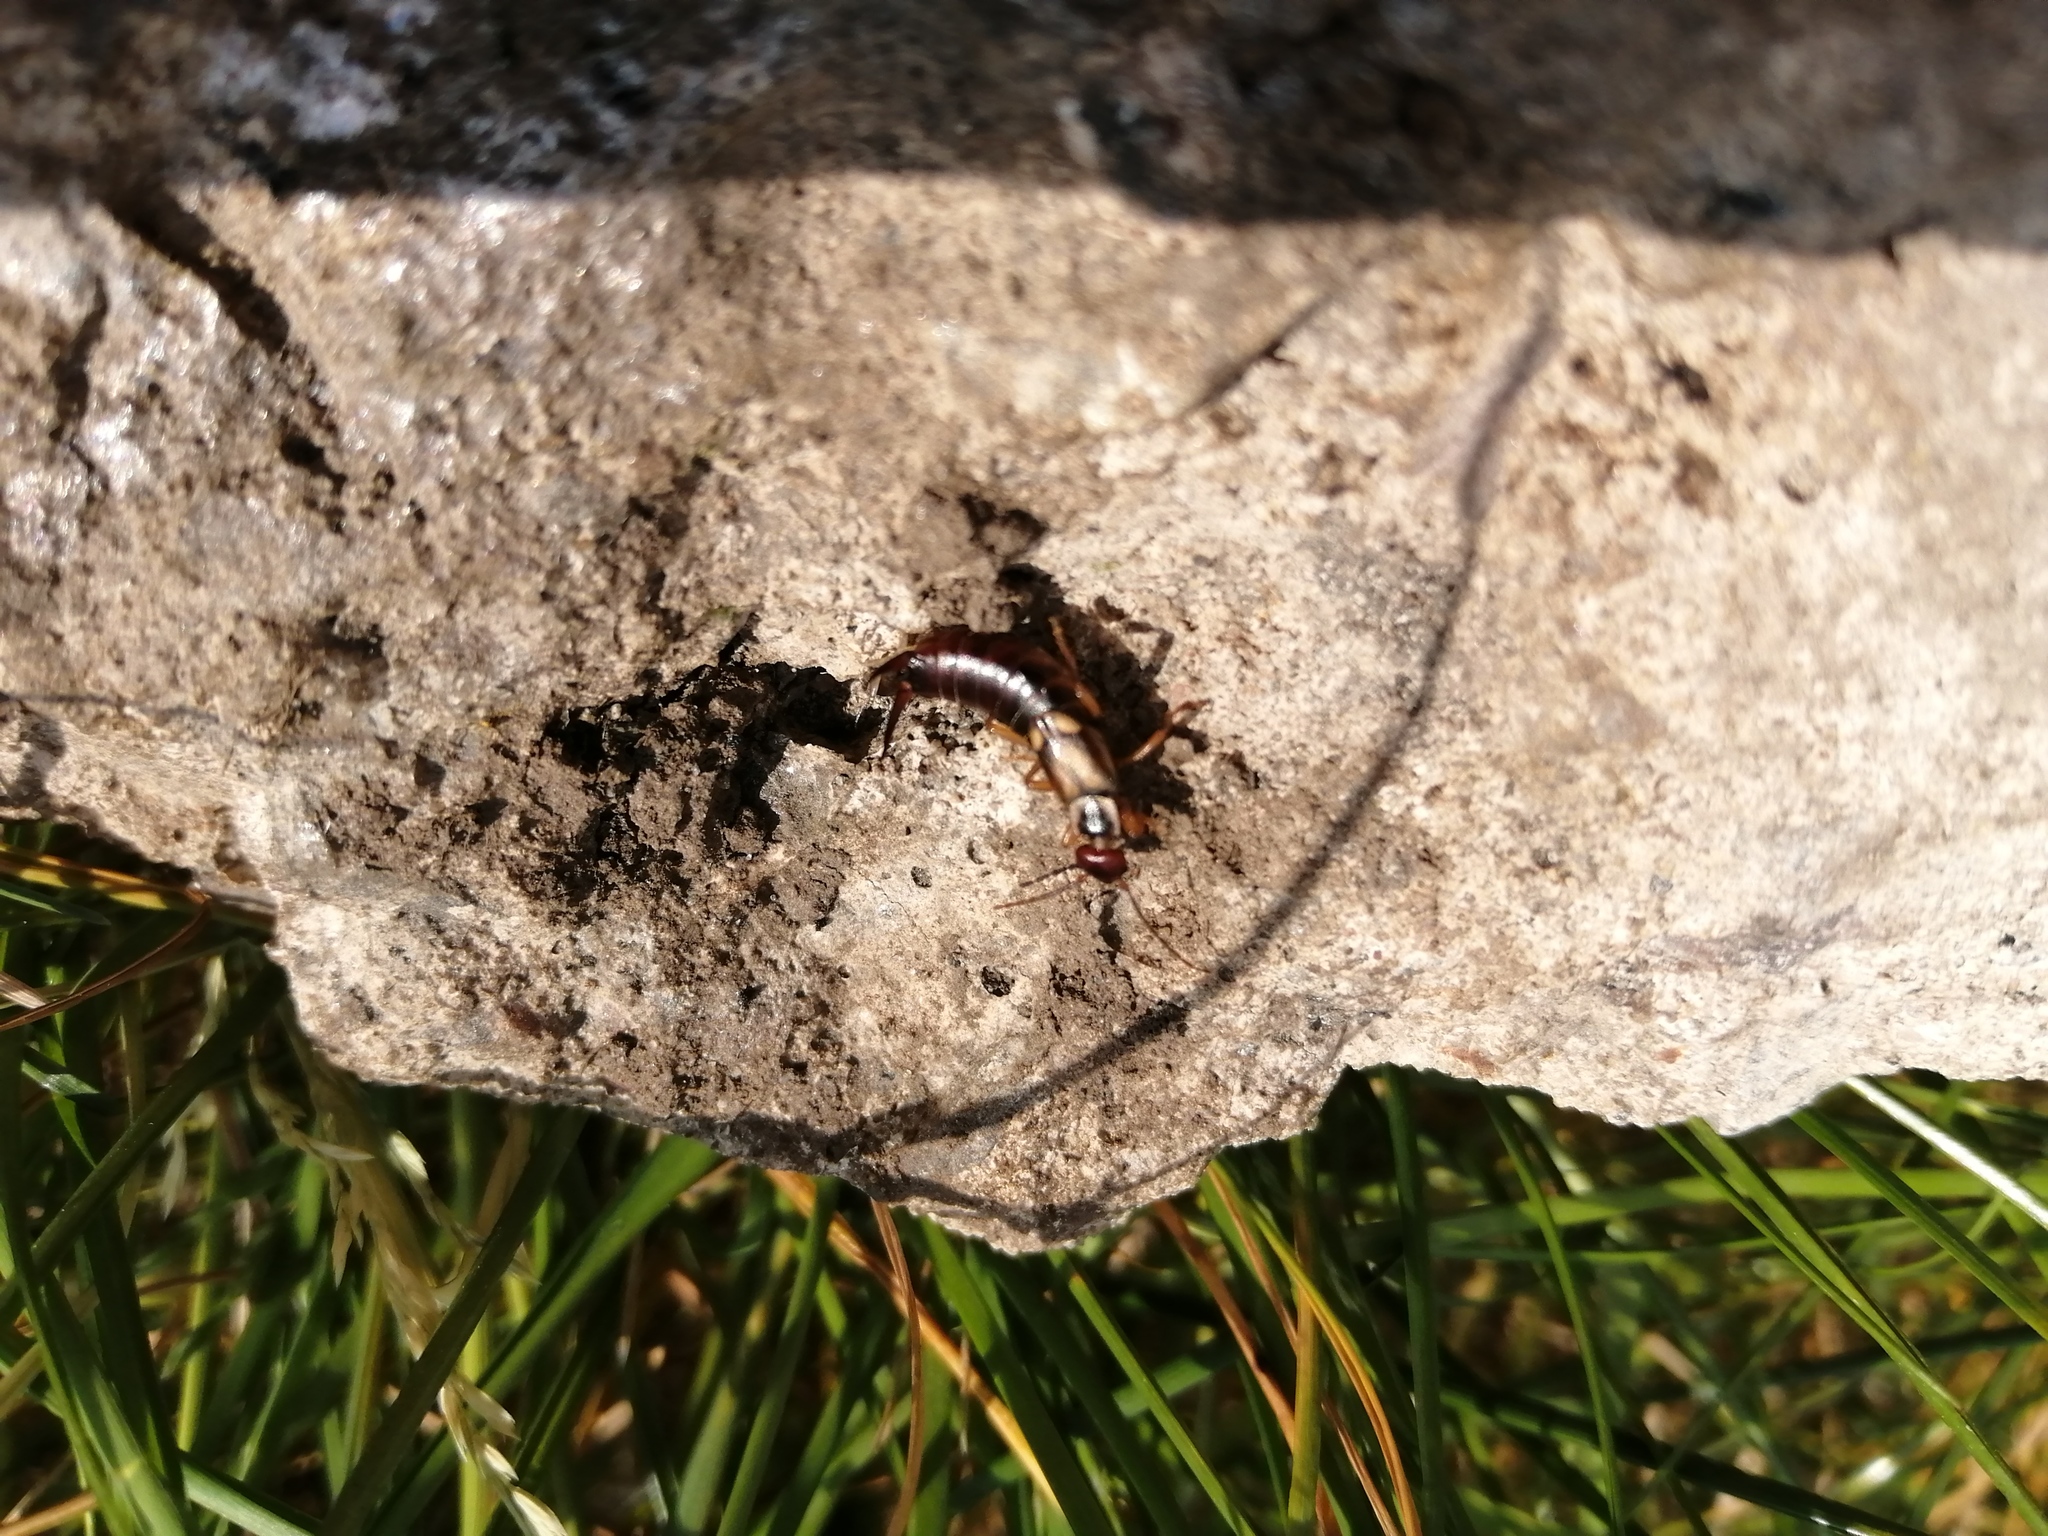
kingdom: Animalia
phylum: Arthropoda
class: Insecta
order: Dermaptera
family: Forficulidae
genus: Forficula
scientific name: Forficula
